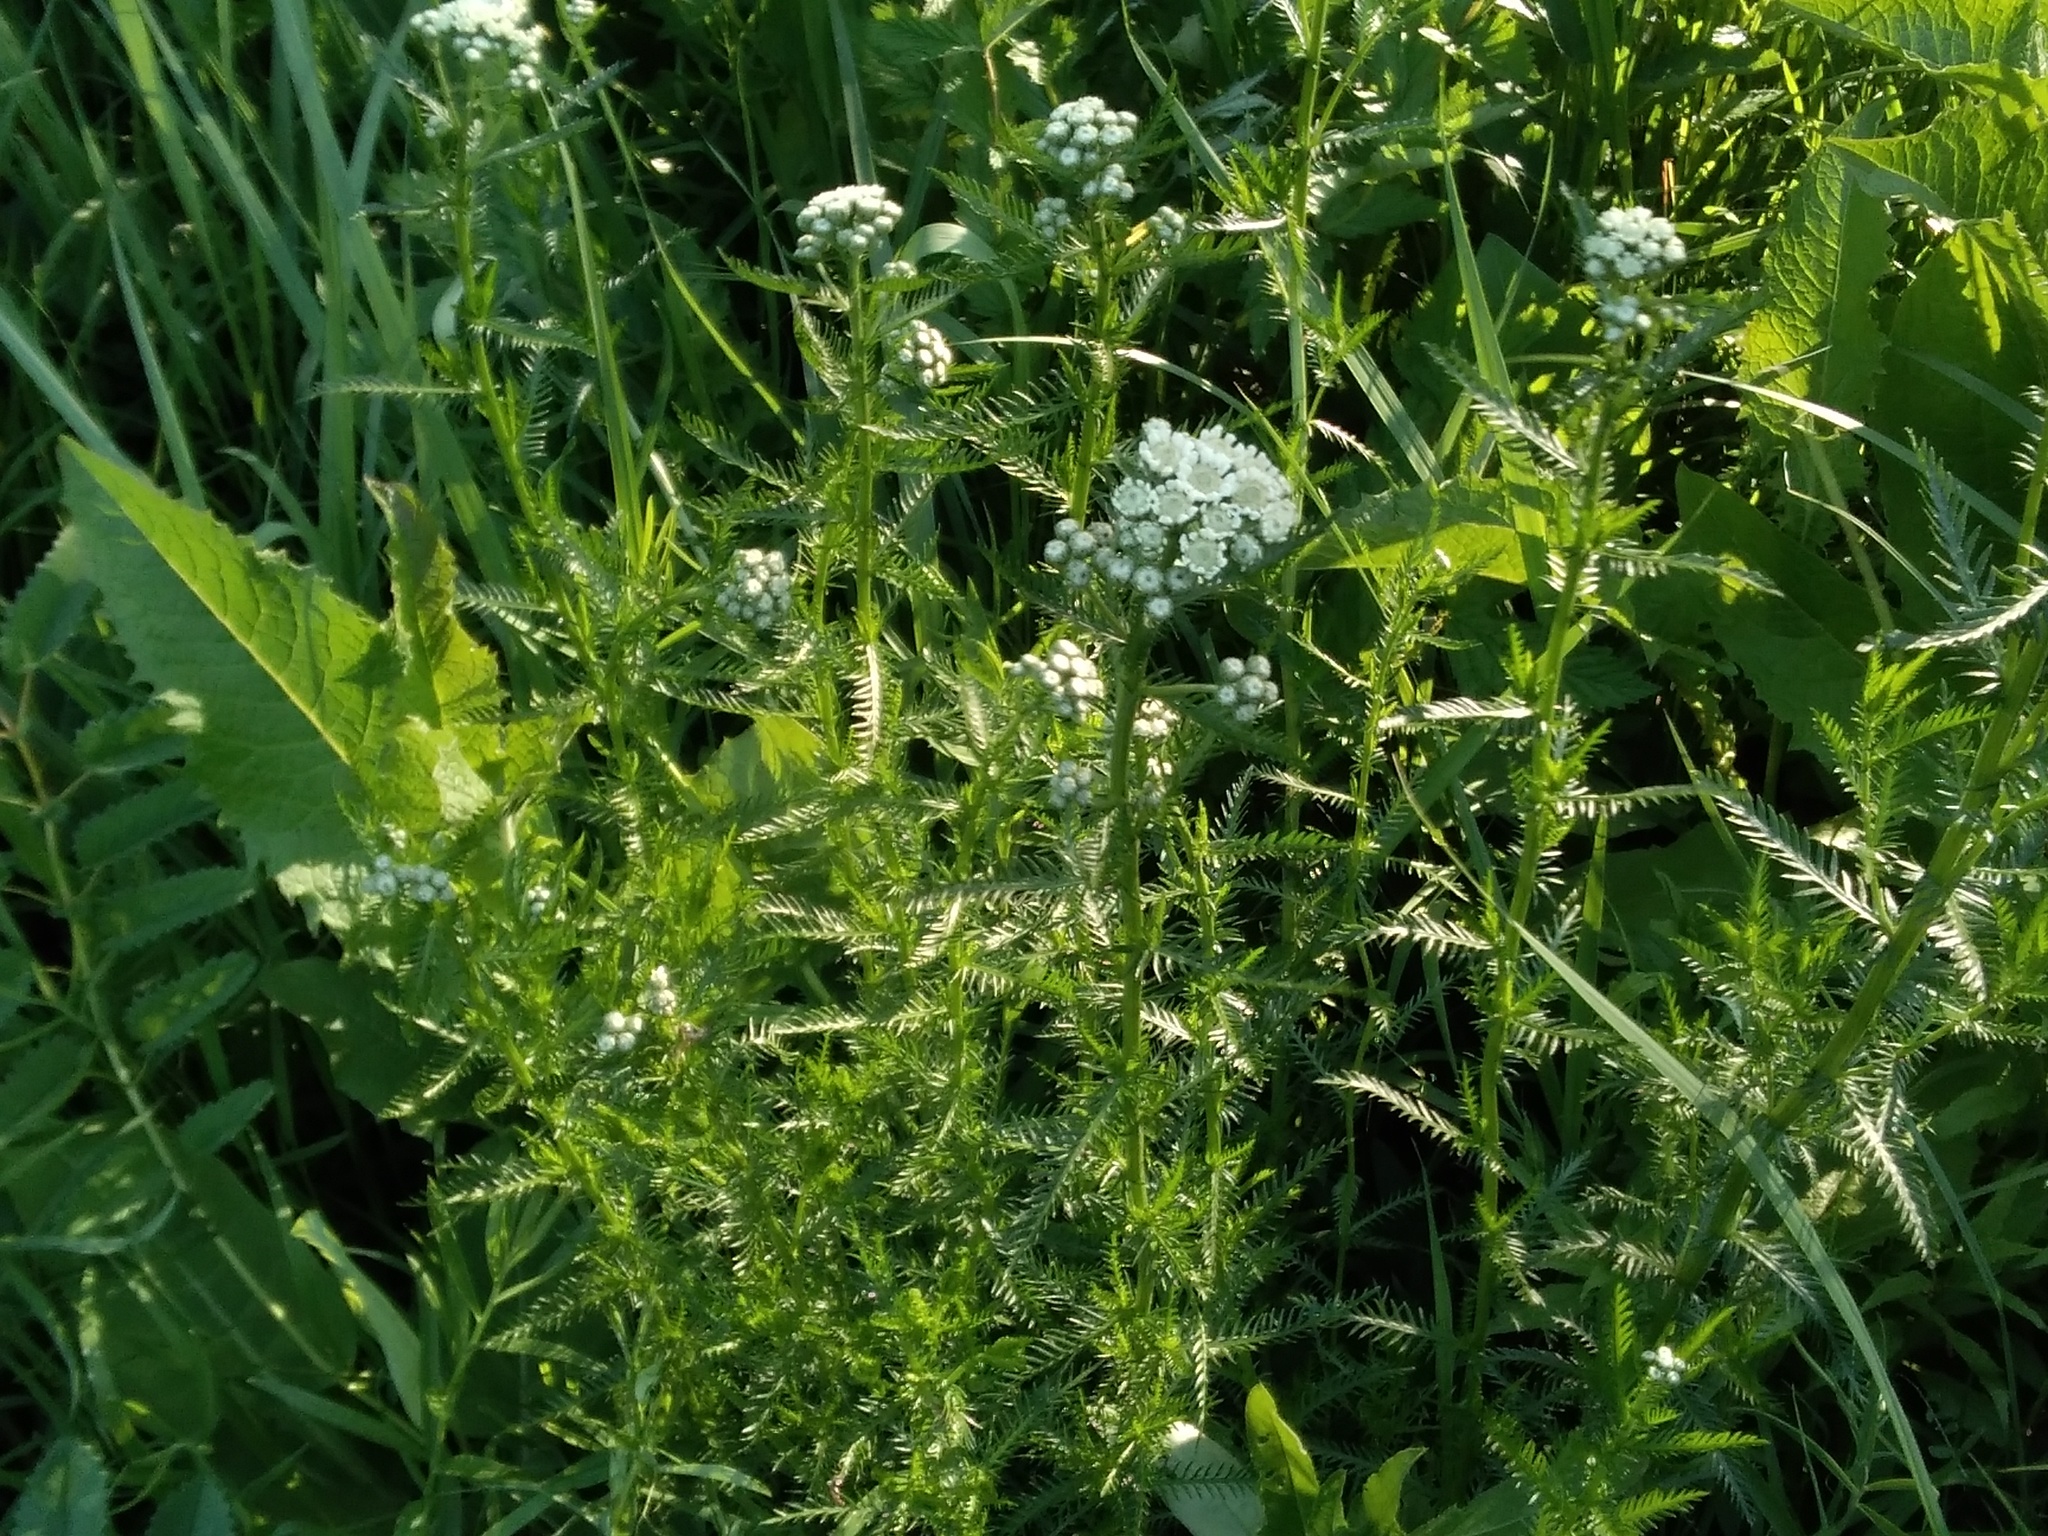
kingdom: Plantae
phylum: Tracheophyta
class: Magnoliopsida
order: Asterales
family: Asteraceae
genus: Achillea
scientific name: Achillea impatiens
